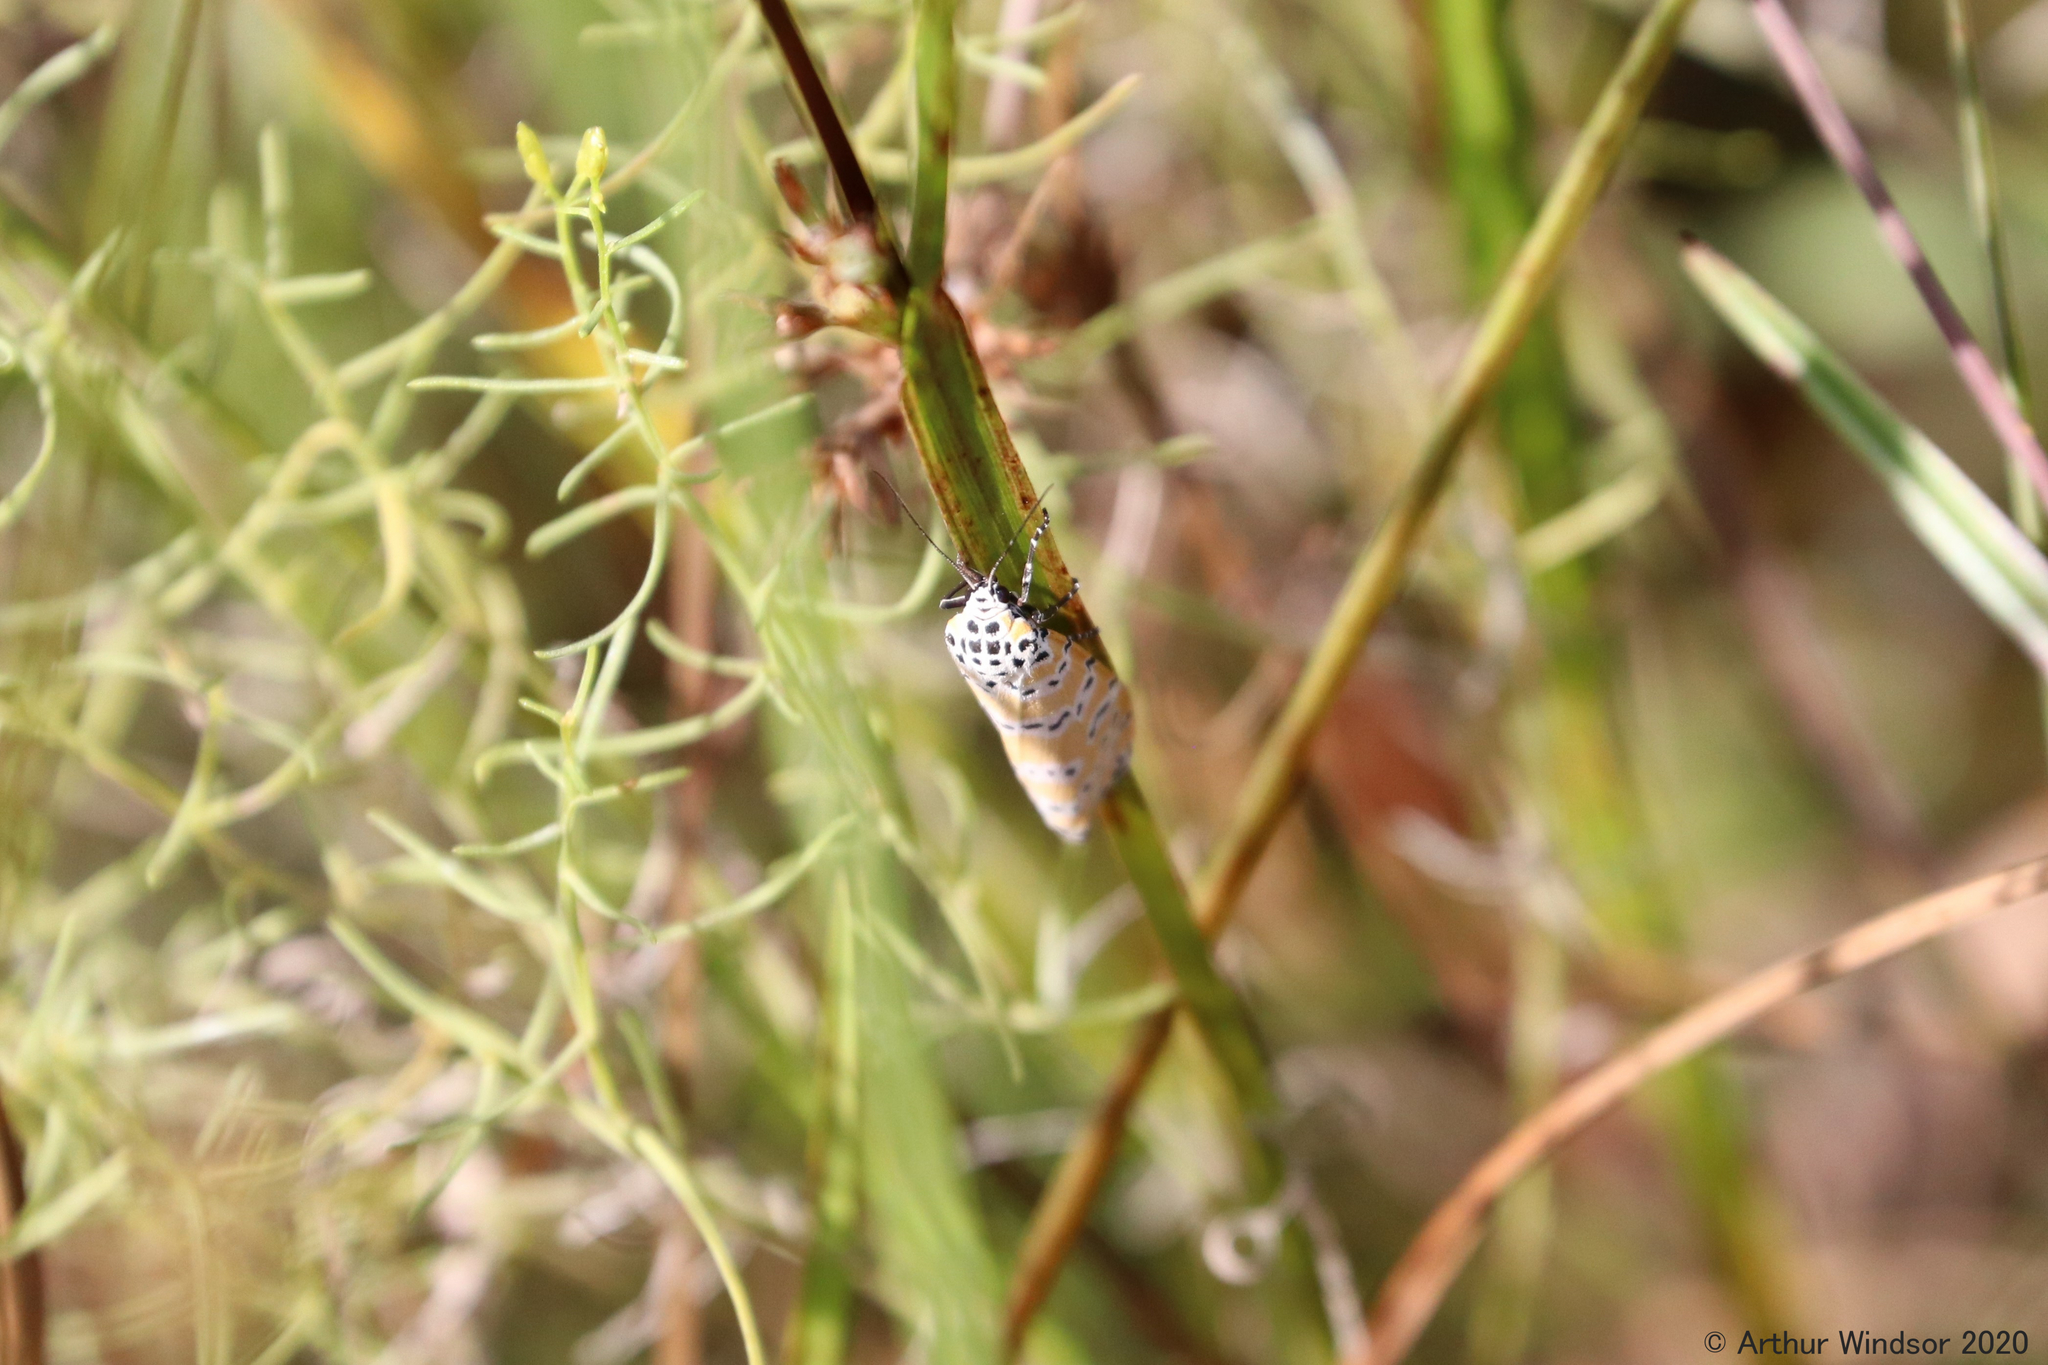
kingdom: Animalia
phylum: Arthropoda
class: Insecta
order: Lepidoptera
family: Erebidae
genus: Utetheisa
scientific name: Utetheisa ornatrix
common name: Beautiful utetheisa
